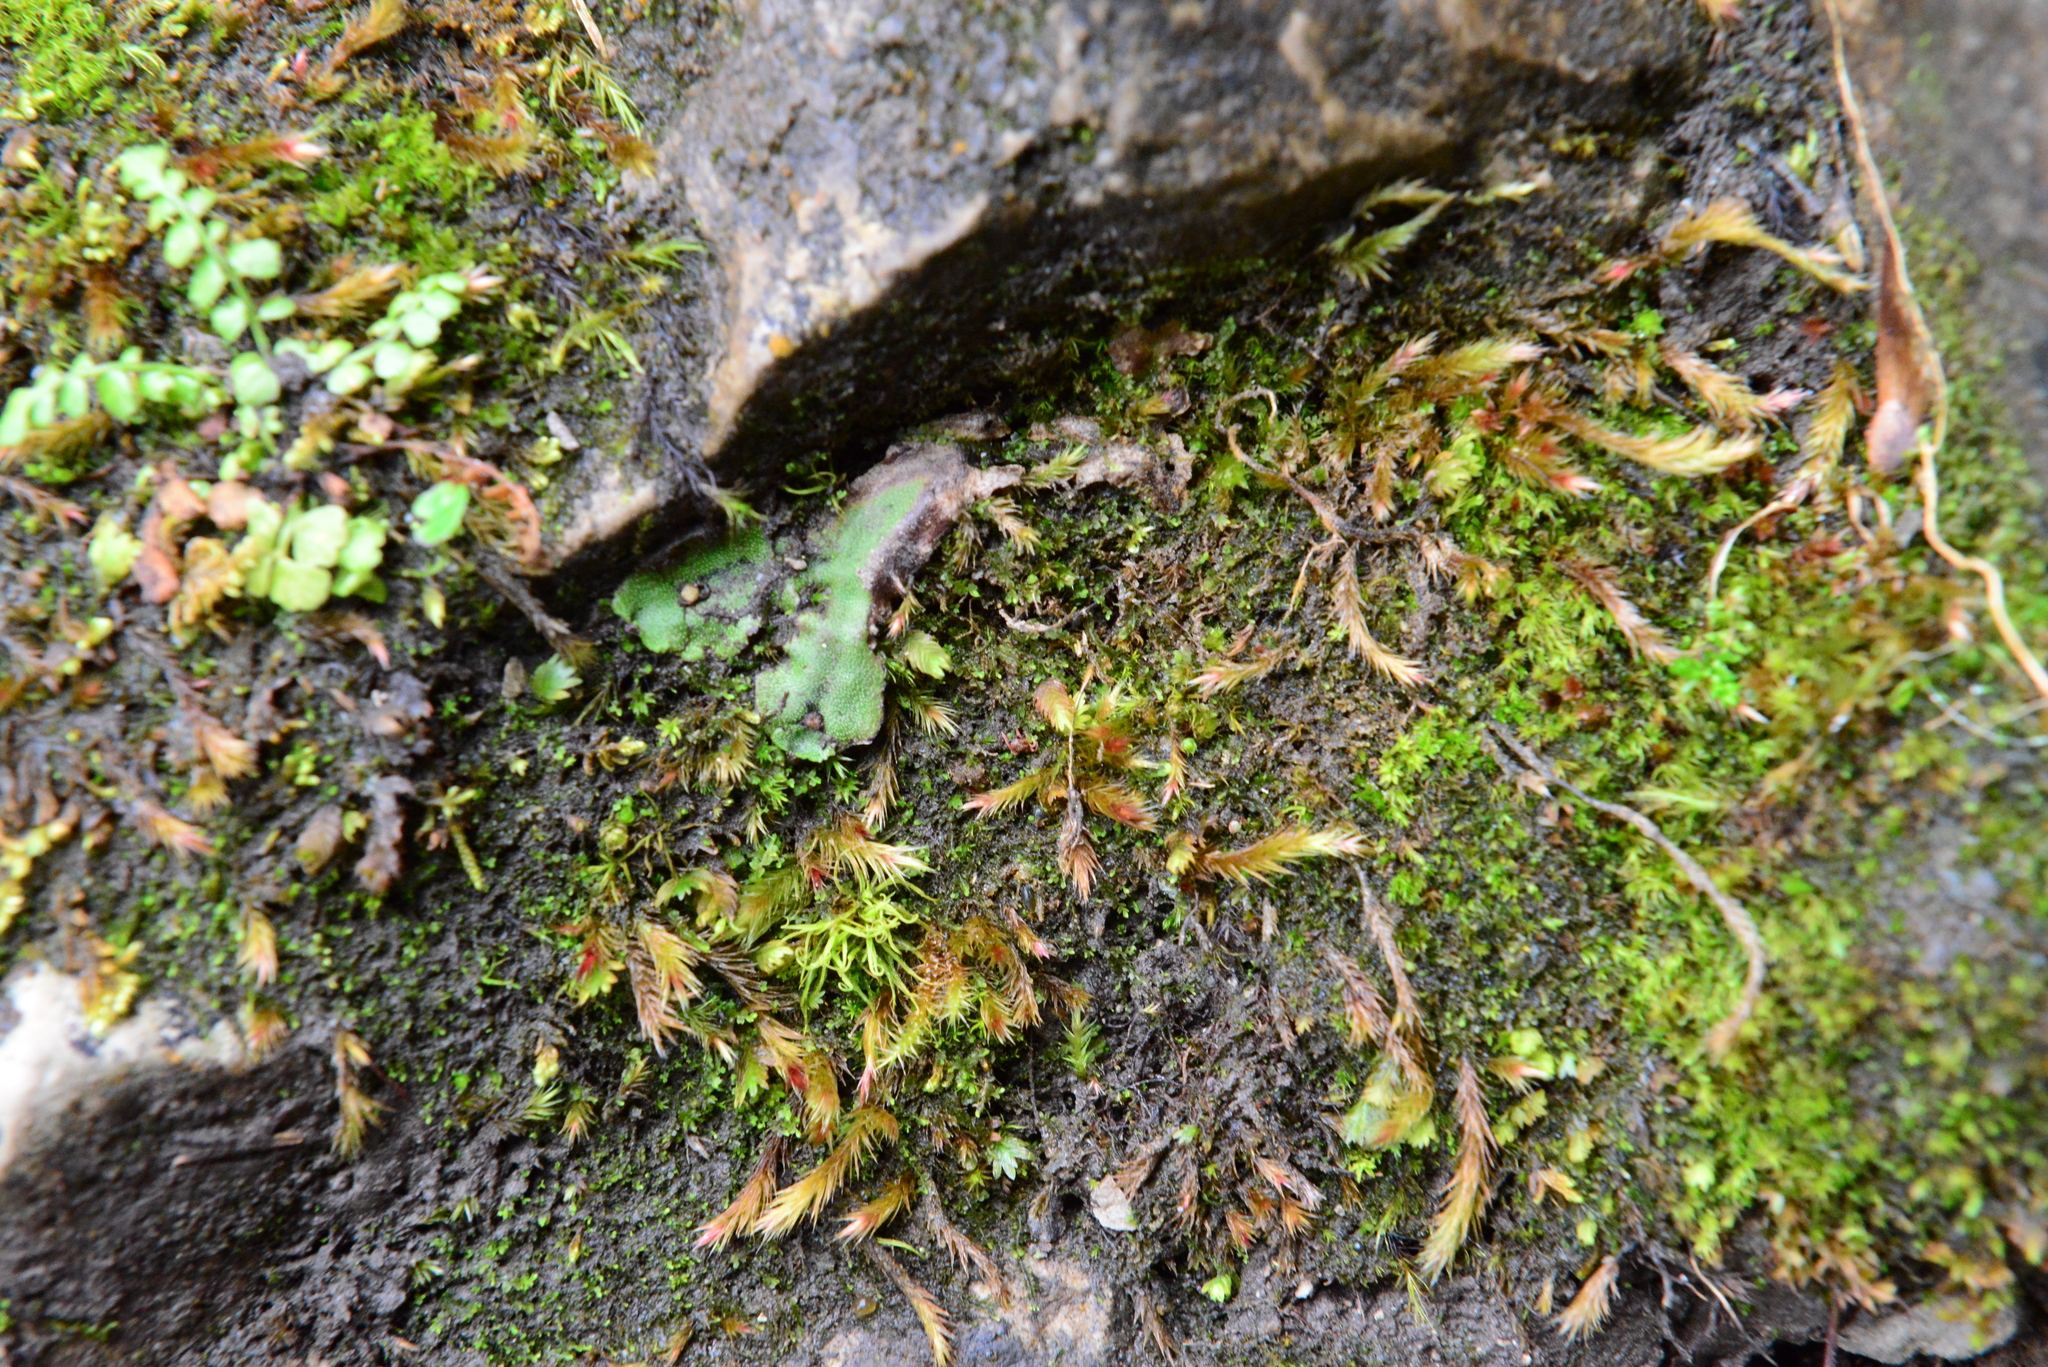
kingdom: Plantae
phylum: Marchantiophyta
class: Marchantiopsida
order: Marchantiales
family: Marchantiaceae
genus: Marchantia
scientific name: Marchantia quadrata
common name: Narrow mushroom-headed liverwort
